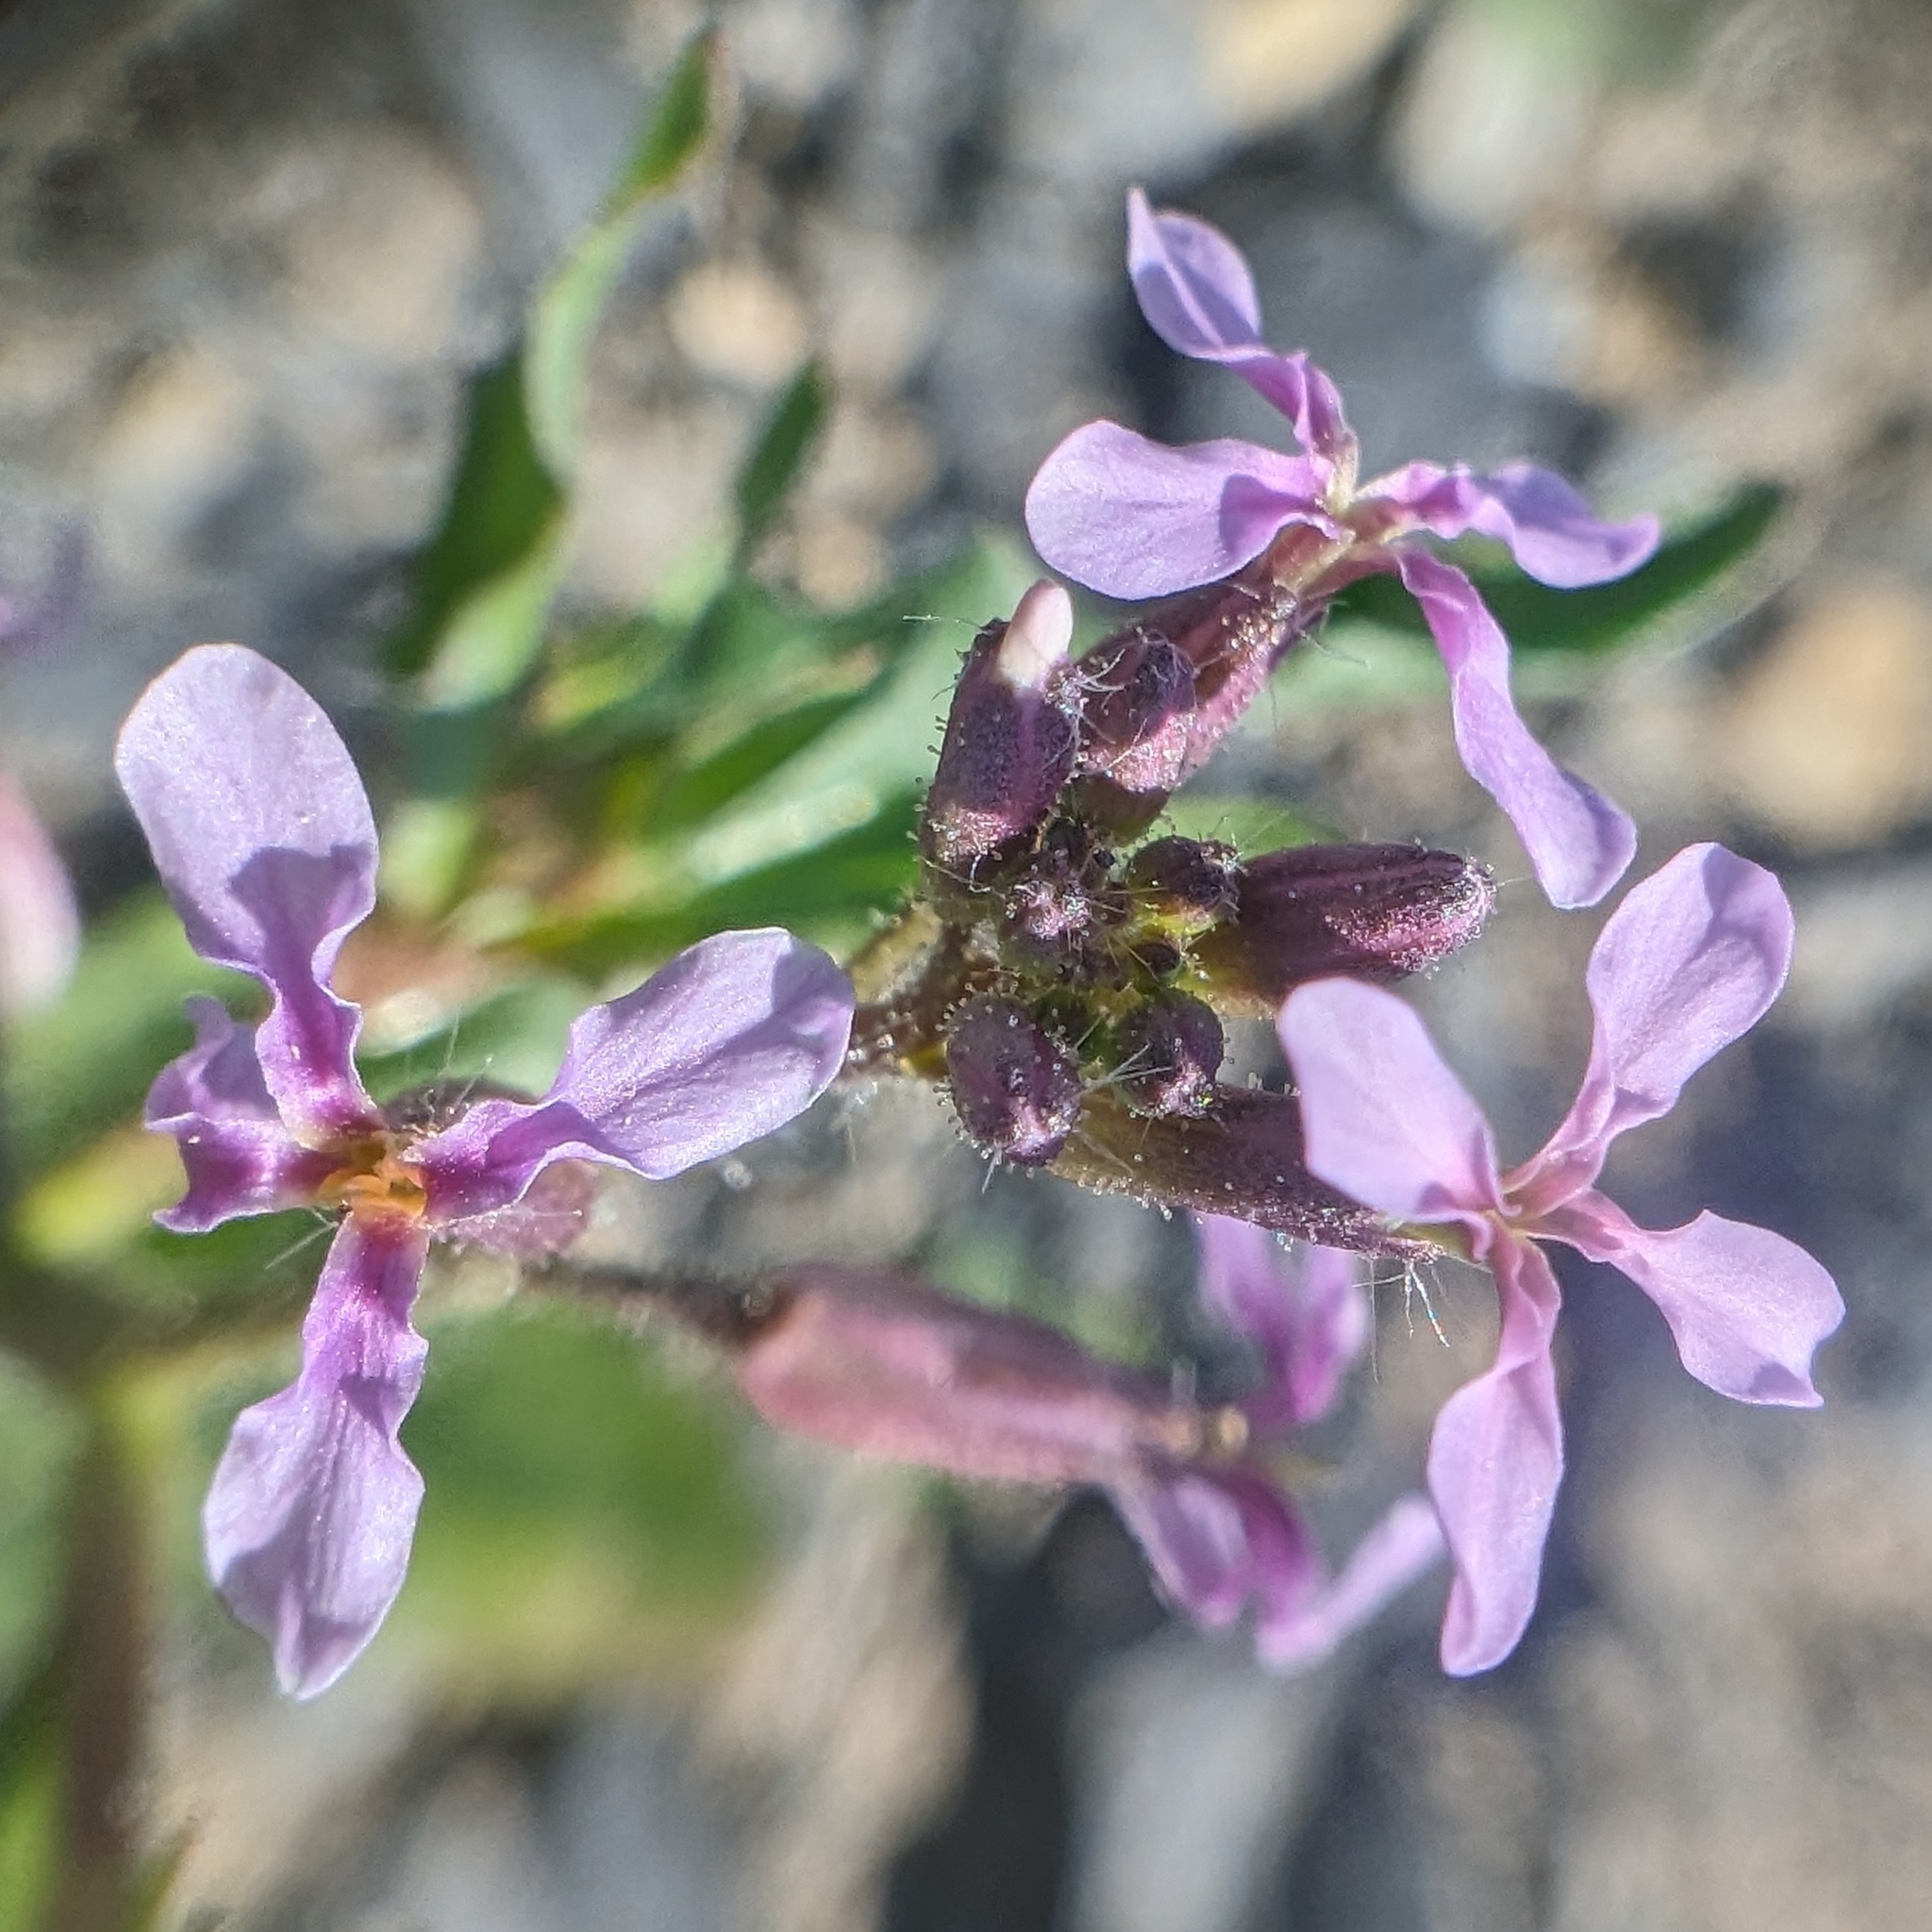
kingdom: Plantae
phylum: Tracheophyta
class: Magnoliopsida
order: Brassicales
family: Brassicaceae
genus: Chorispora
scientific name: Chorispora tenella
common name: Crossflower
